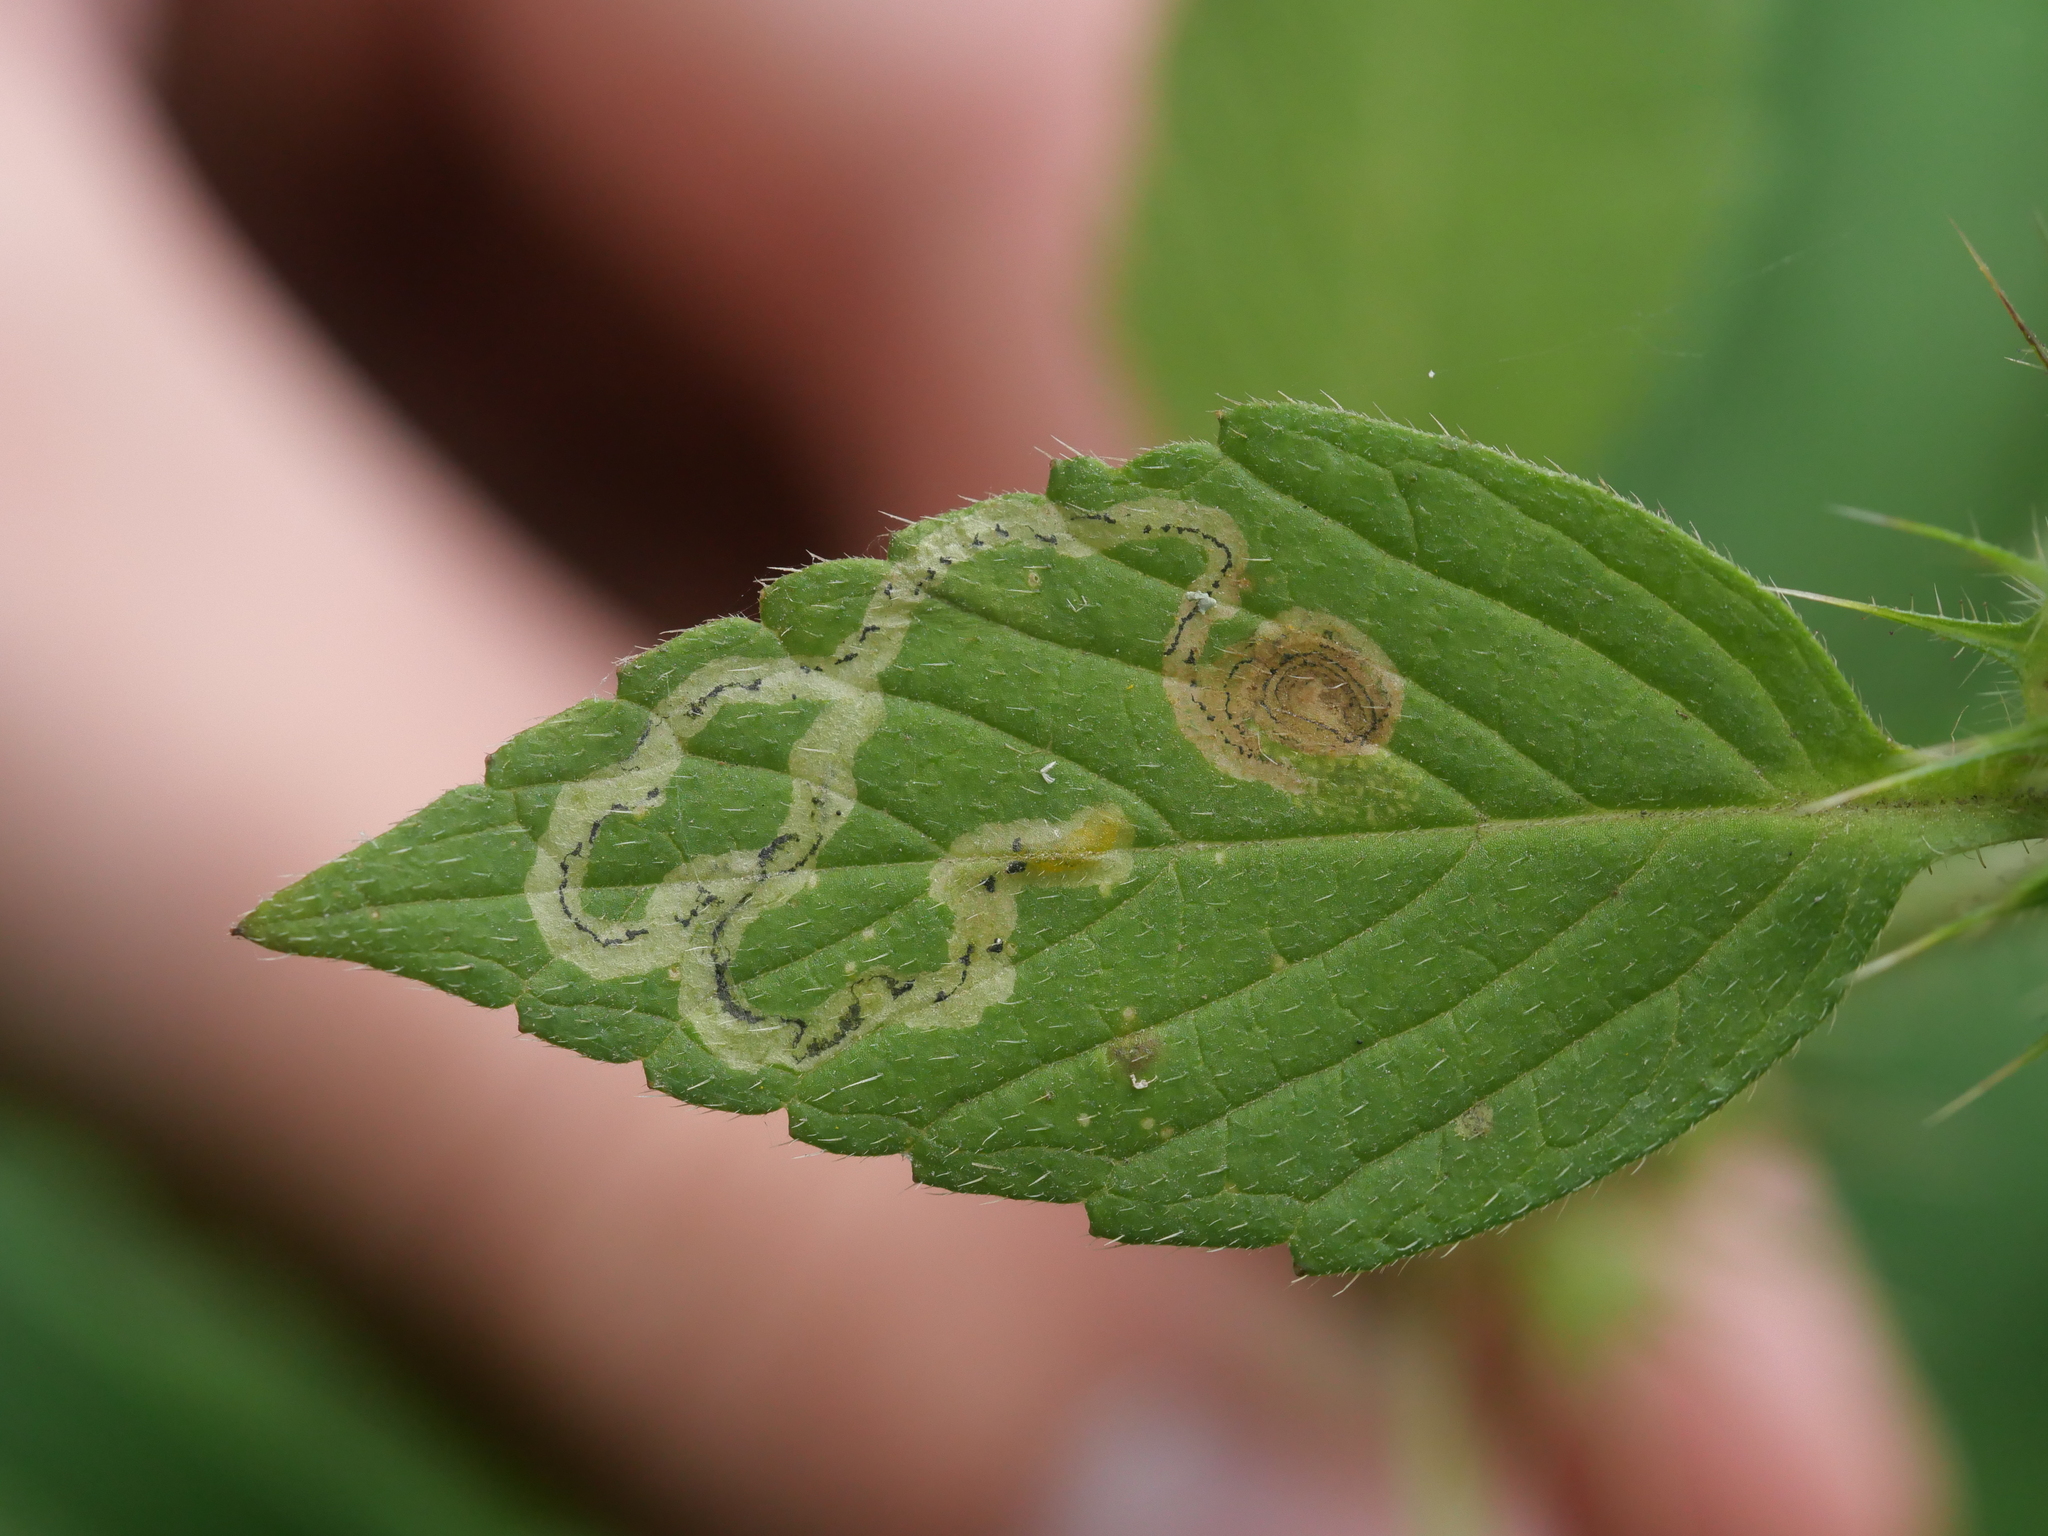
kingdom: Animalia
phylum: Arthropoda
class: Insecta
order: Diptera
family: Agromyzidae
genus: Liriomyza
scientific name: Liriomyza eupatorii
